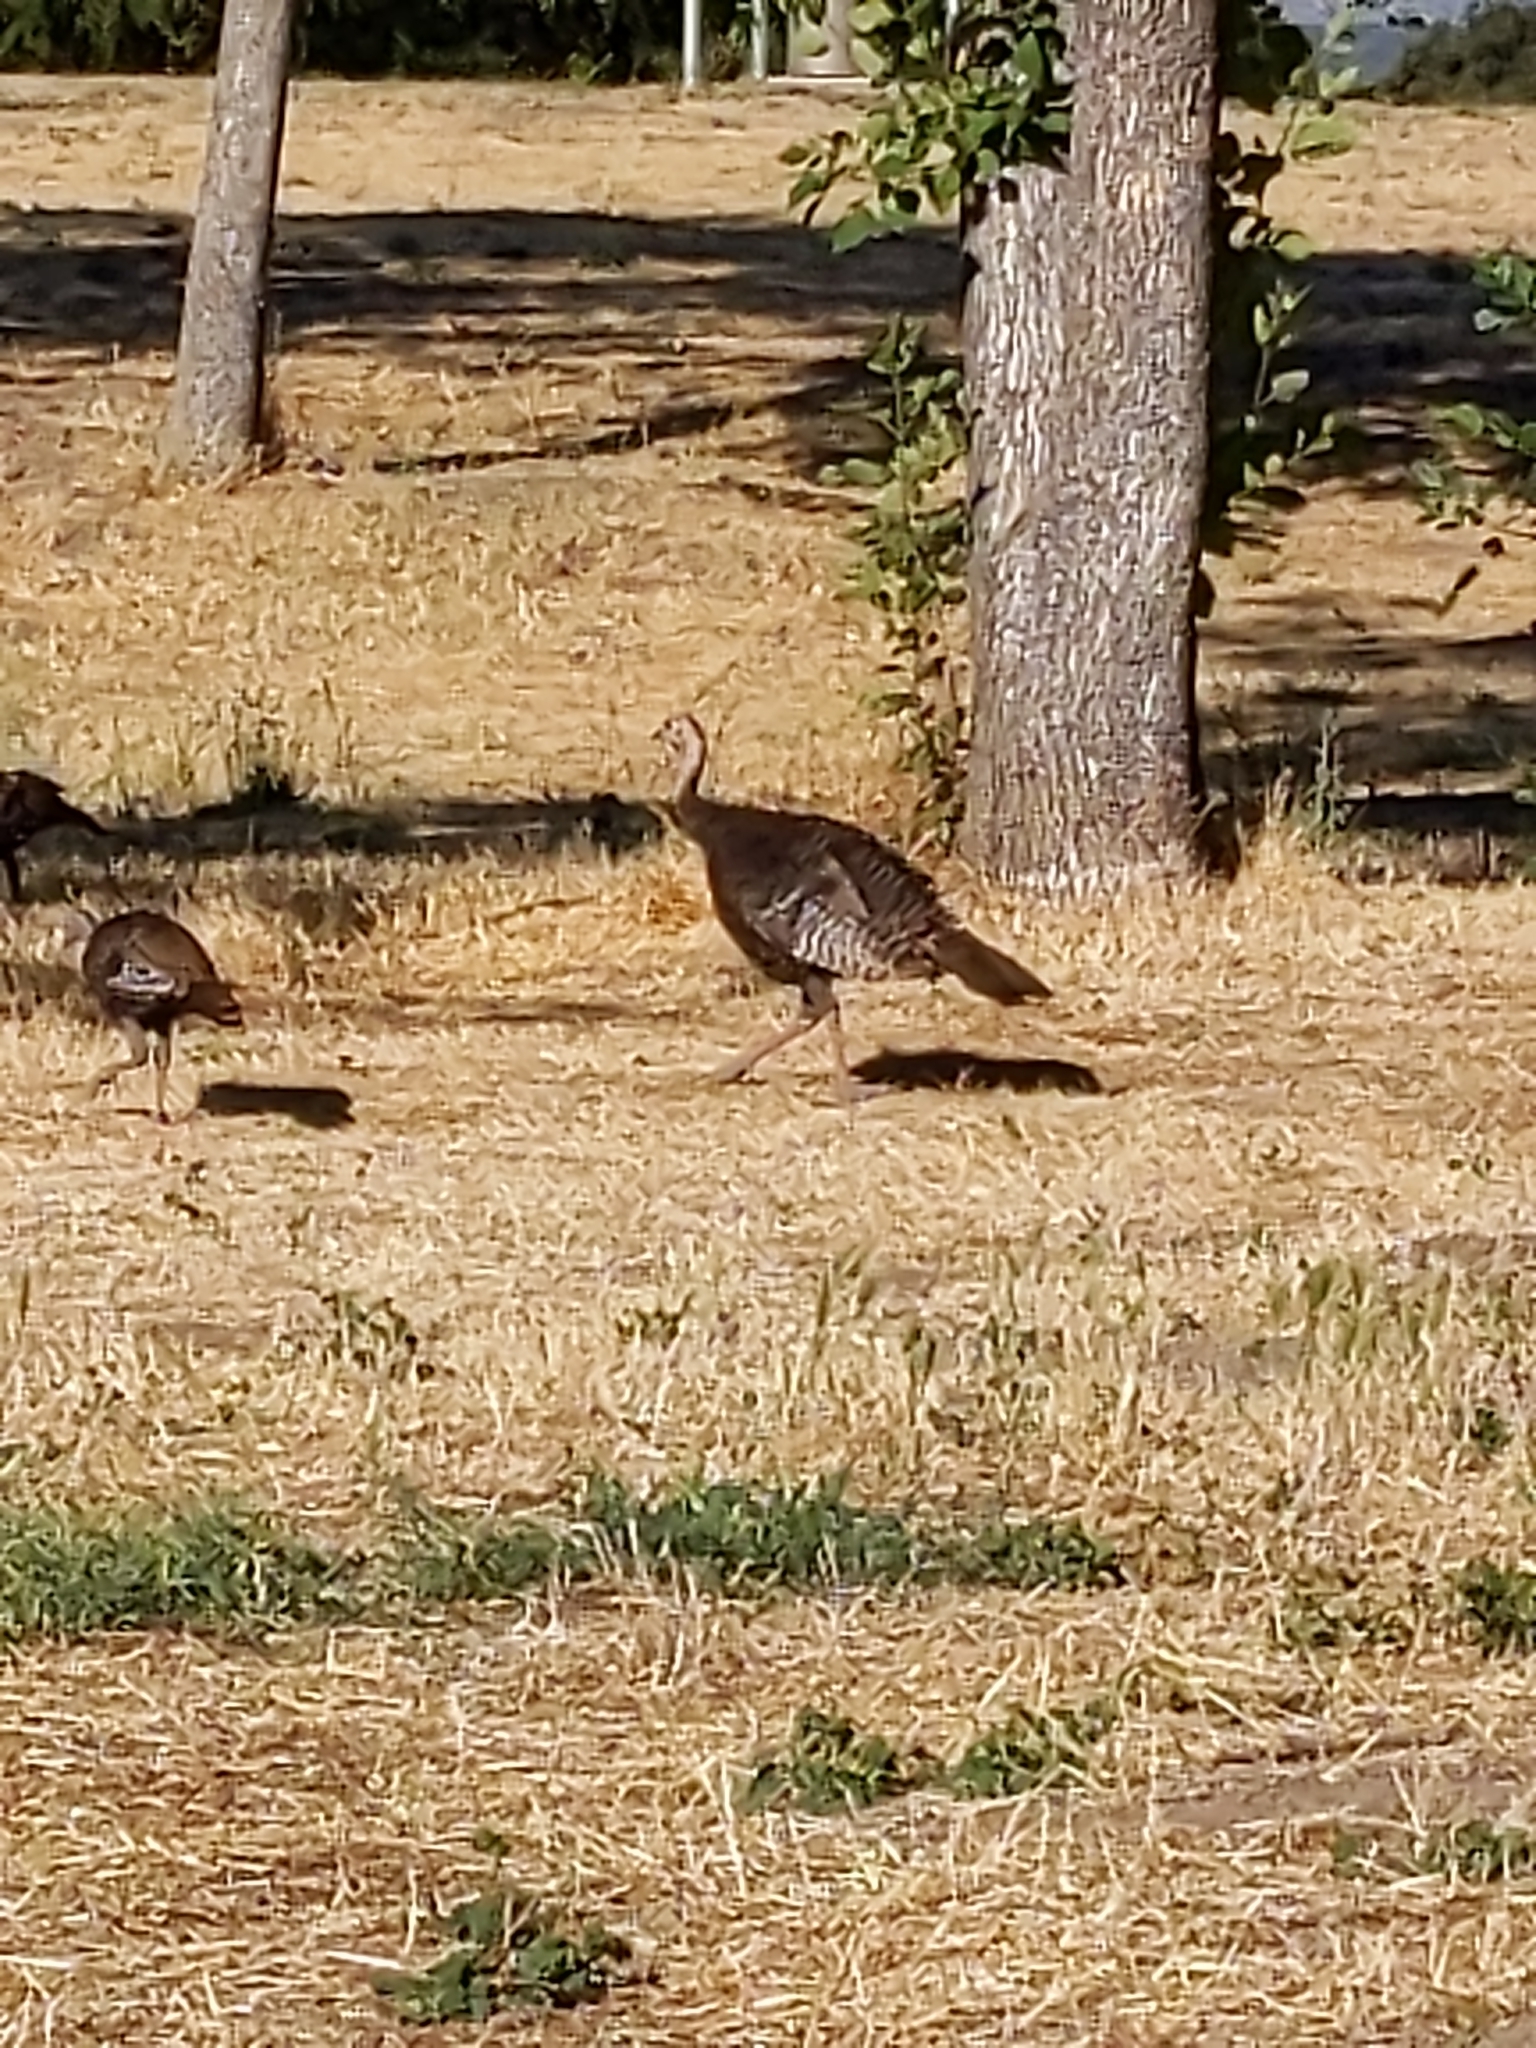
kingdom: Animalia
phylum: Chordata
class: Aves
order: Galliformes
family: Phasianidae
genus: Meleagris
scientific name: Meleagris gallopavo
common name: Wild turkey
